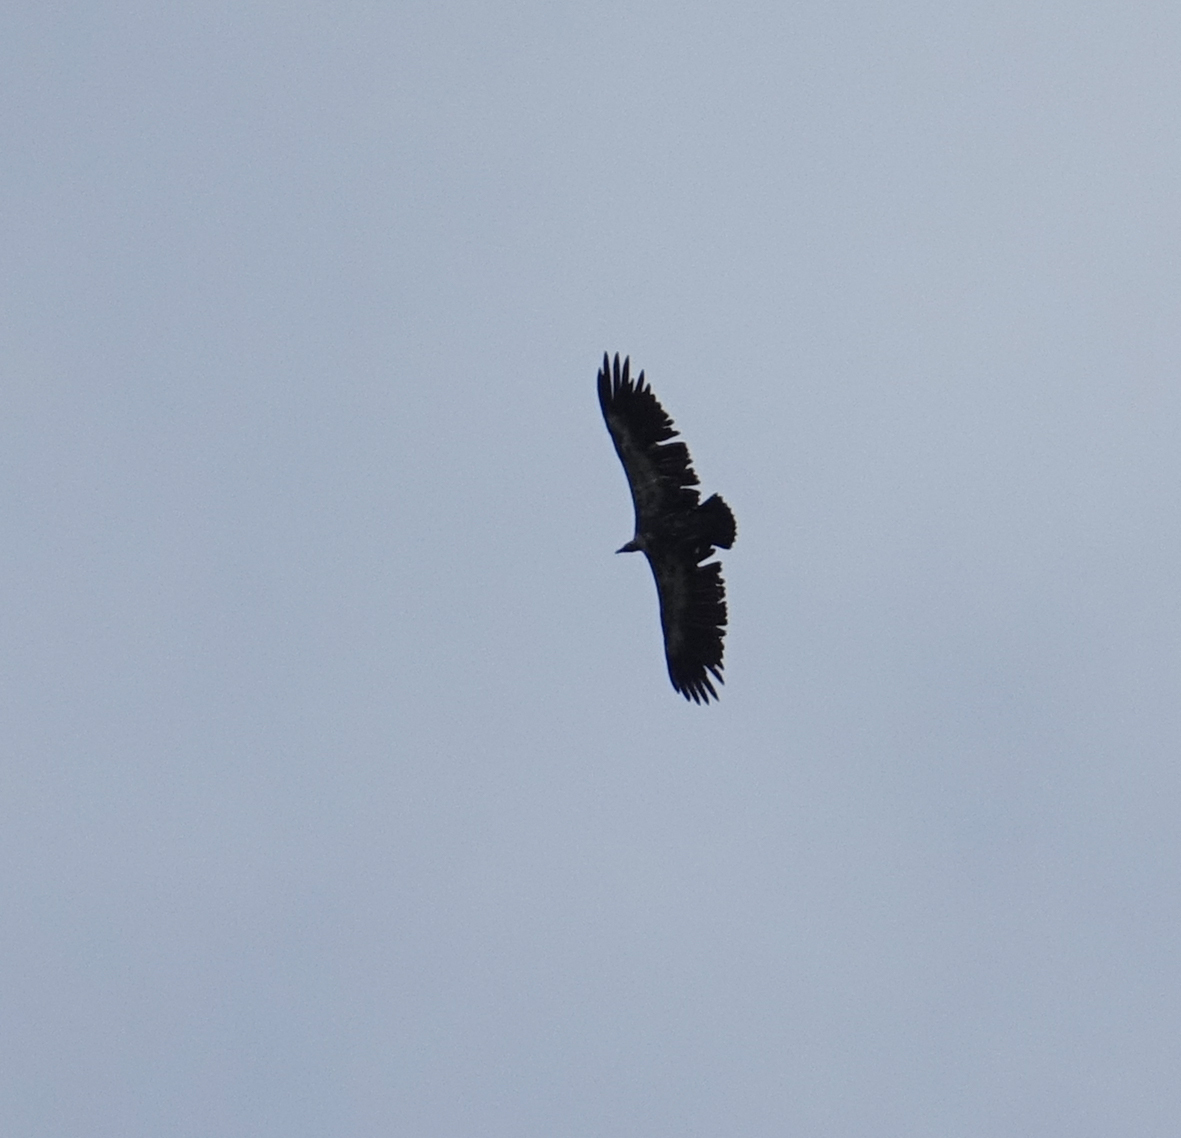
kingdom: Animalia
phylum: Chordata
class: Aves
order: Accipitriformes
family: Accipitridae
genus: Gyps
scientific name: Gyps fulvus
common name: Griffon vulture
